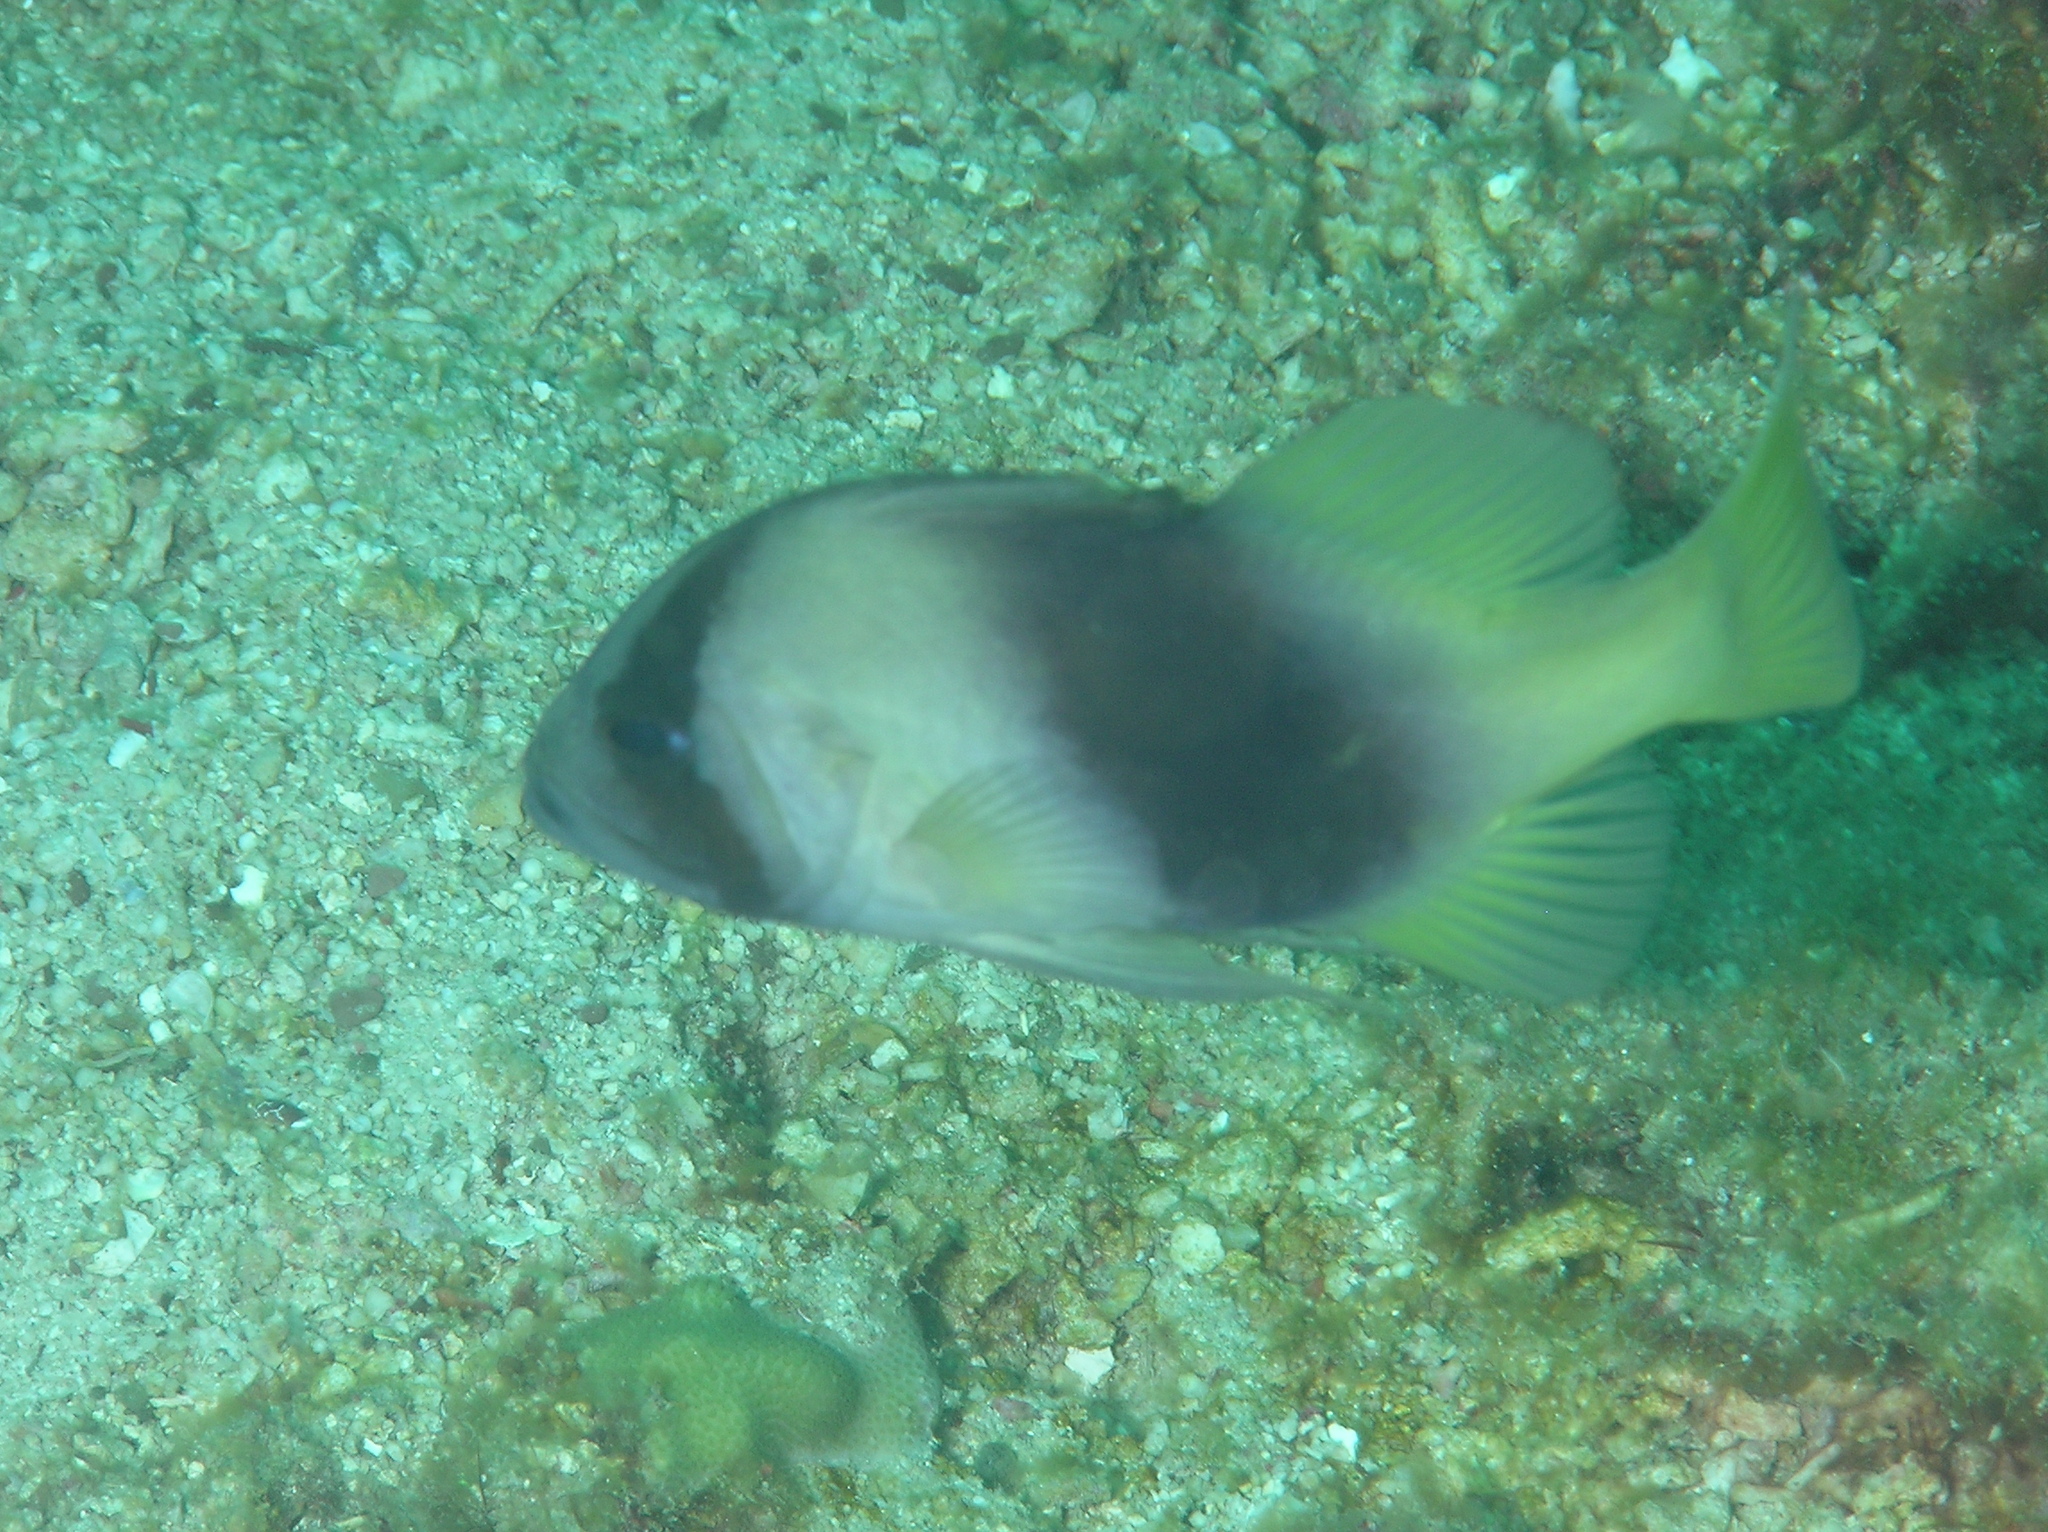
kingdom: Animalia
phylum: Chordata
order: Perciformes
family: Serranidae
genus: Diploprion
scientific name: Diploprion bifasciatum
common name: Barred soapfish
